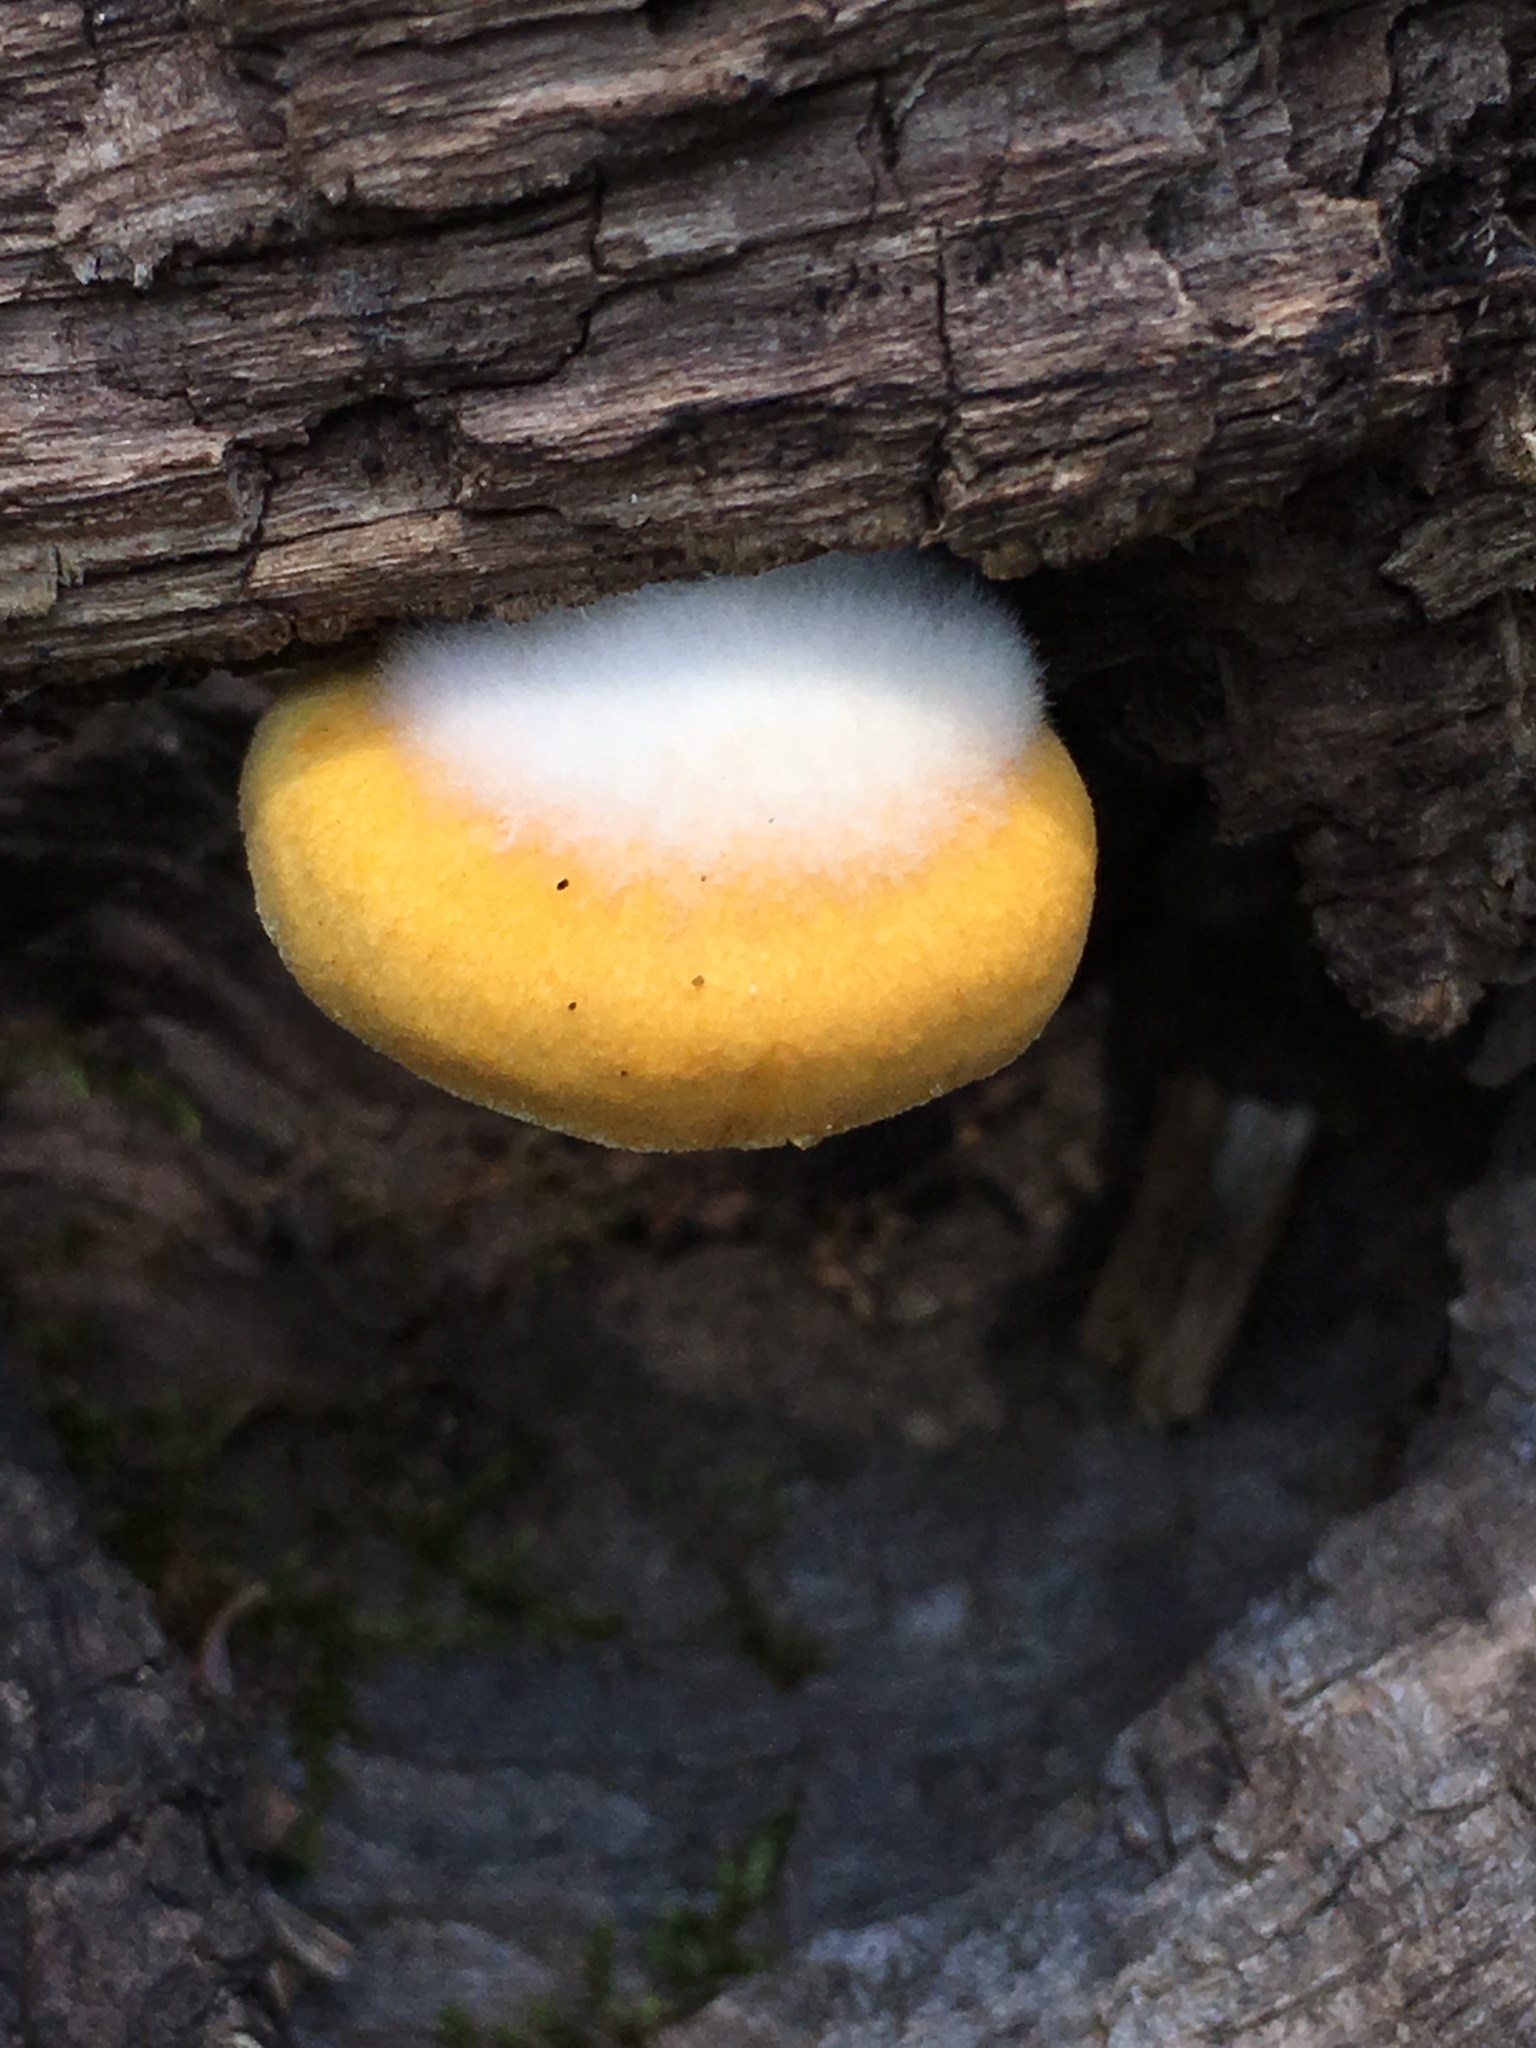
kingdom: Fungi
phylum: Basidiomycota
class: Agaricomycetes
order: Agaricales
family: Crepidotaceae
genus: Crepidotus
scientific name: Crepidotus croceotinctus
